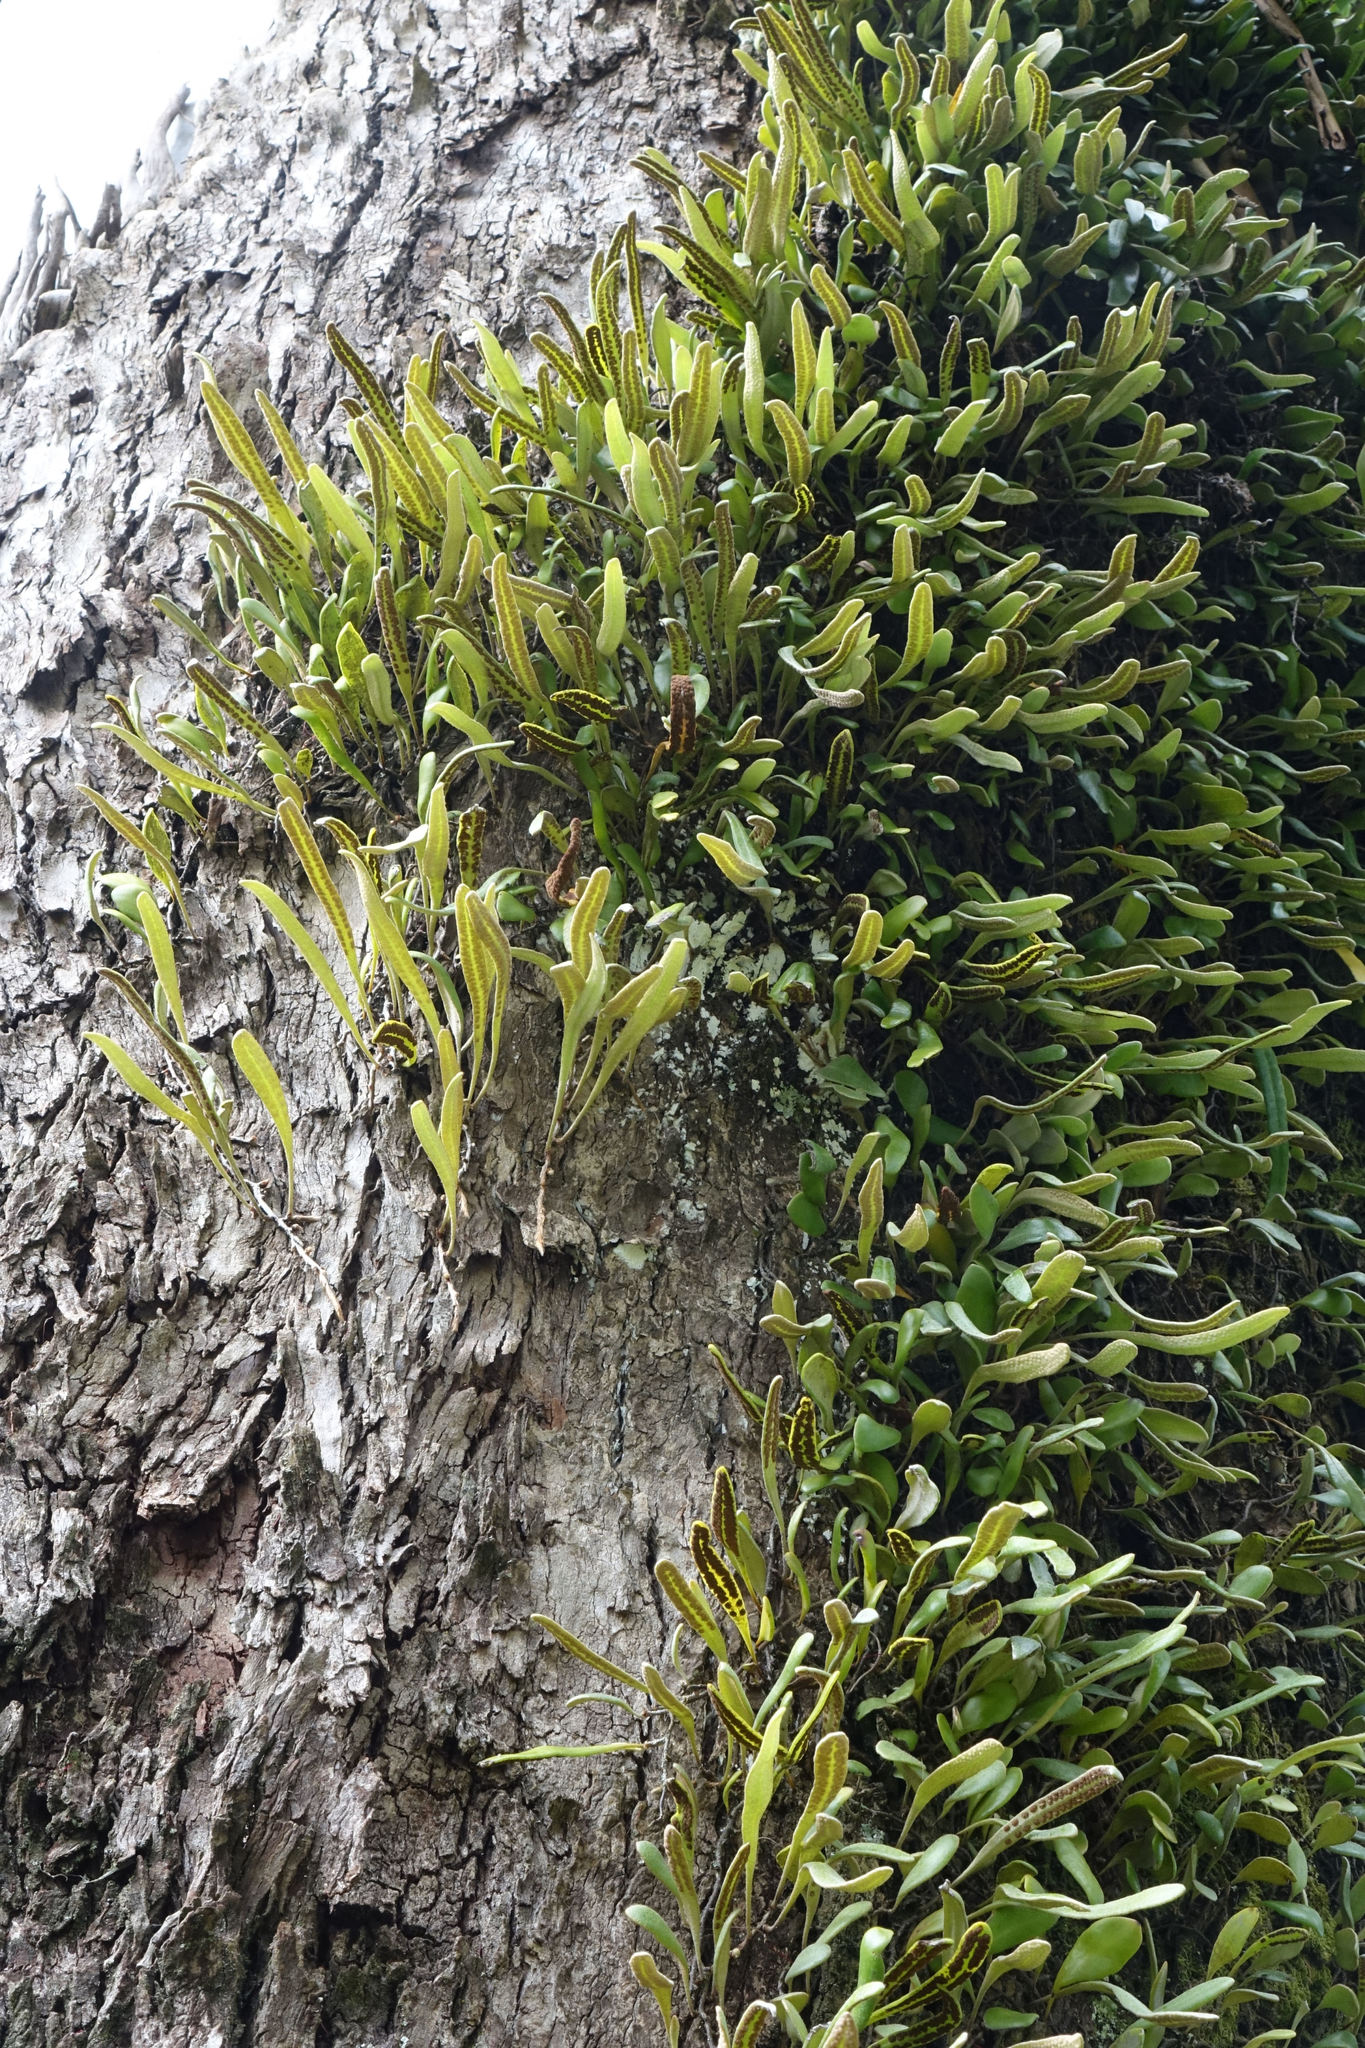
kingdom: Plantae
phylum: Tracheophyta
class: Polypodiopsida
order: Polypodiales
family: Polypodiaceae
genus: Pyrrosia
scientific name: Pyrrosia eleagnifolia
